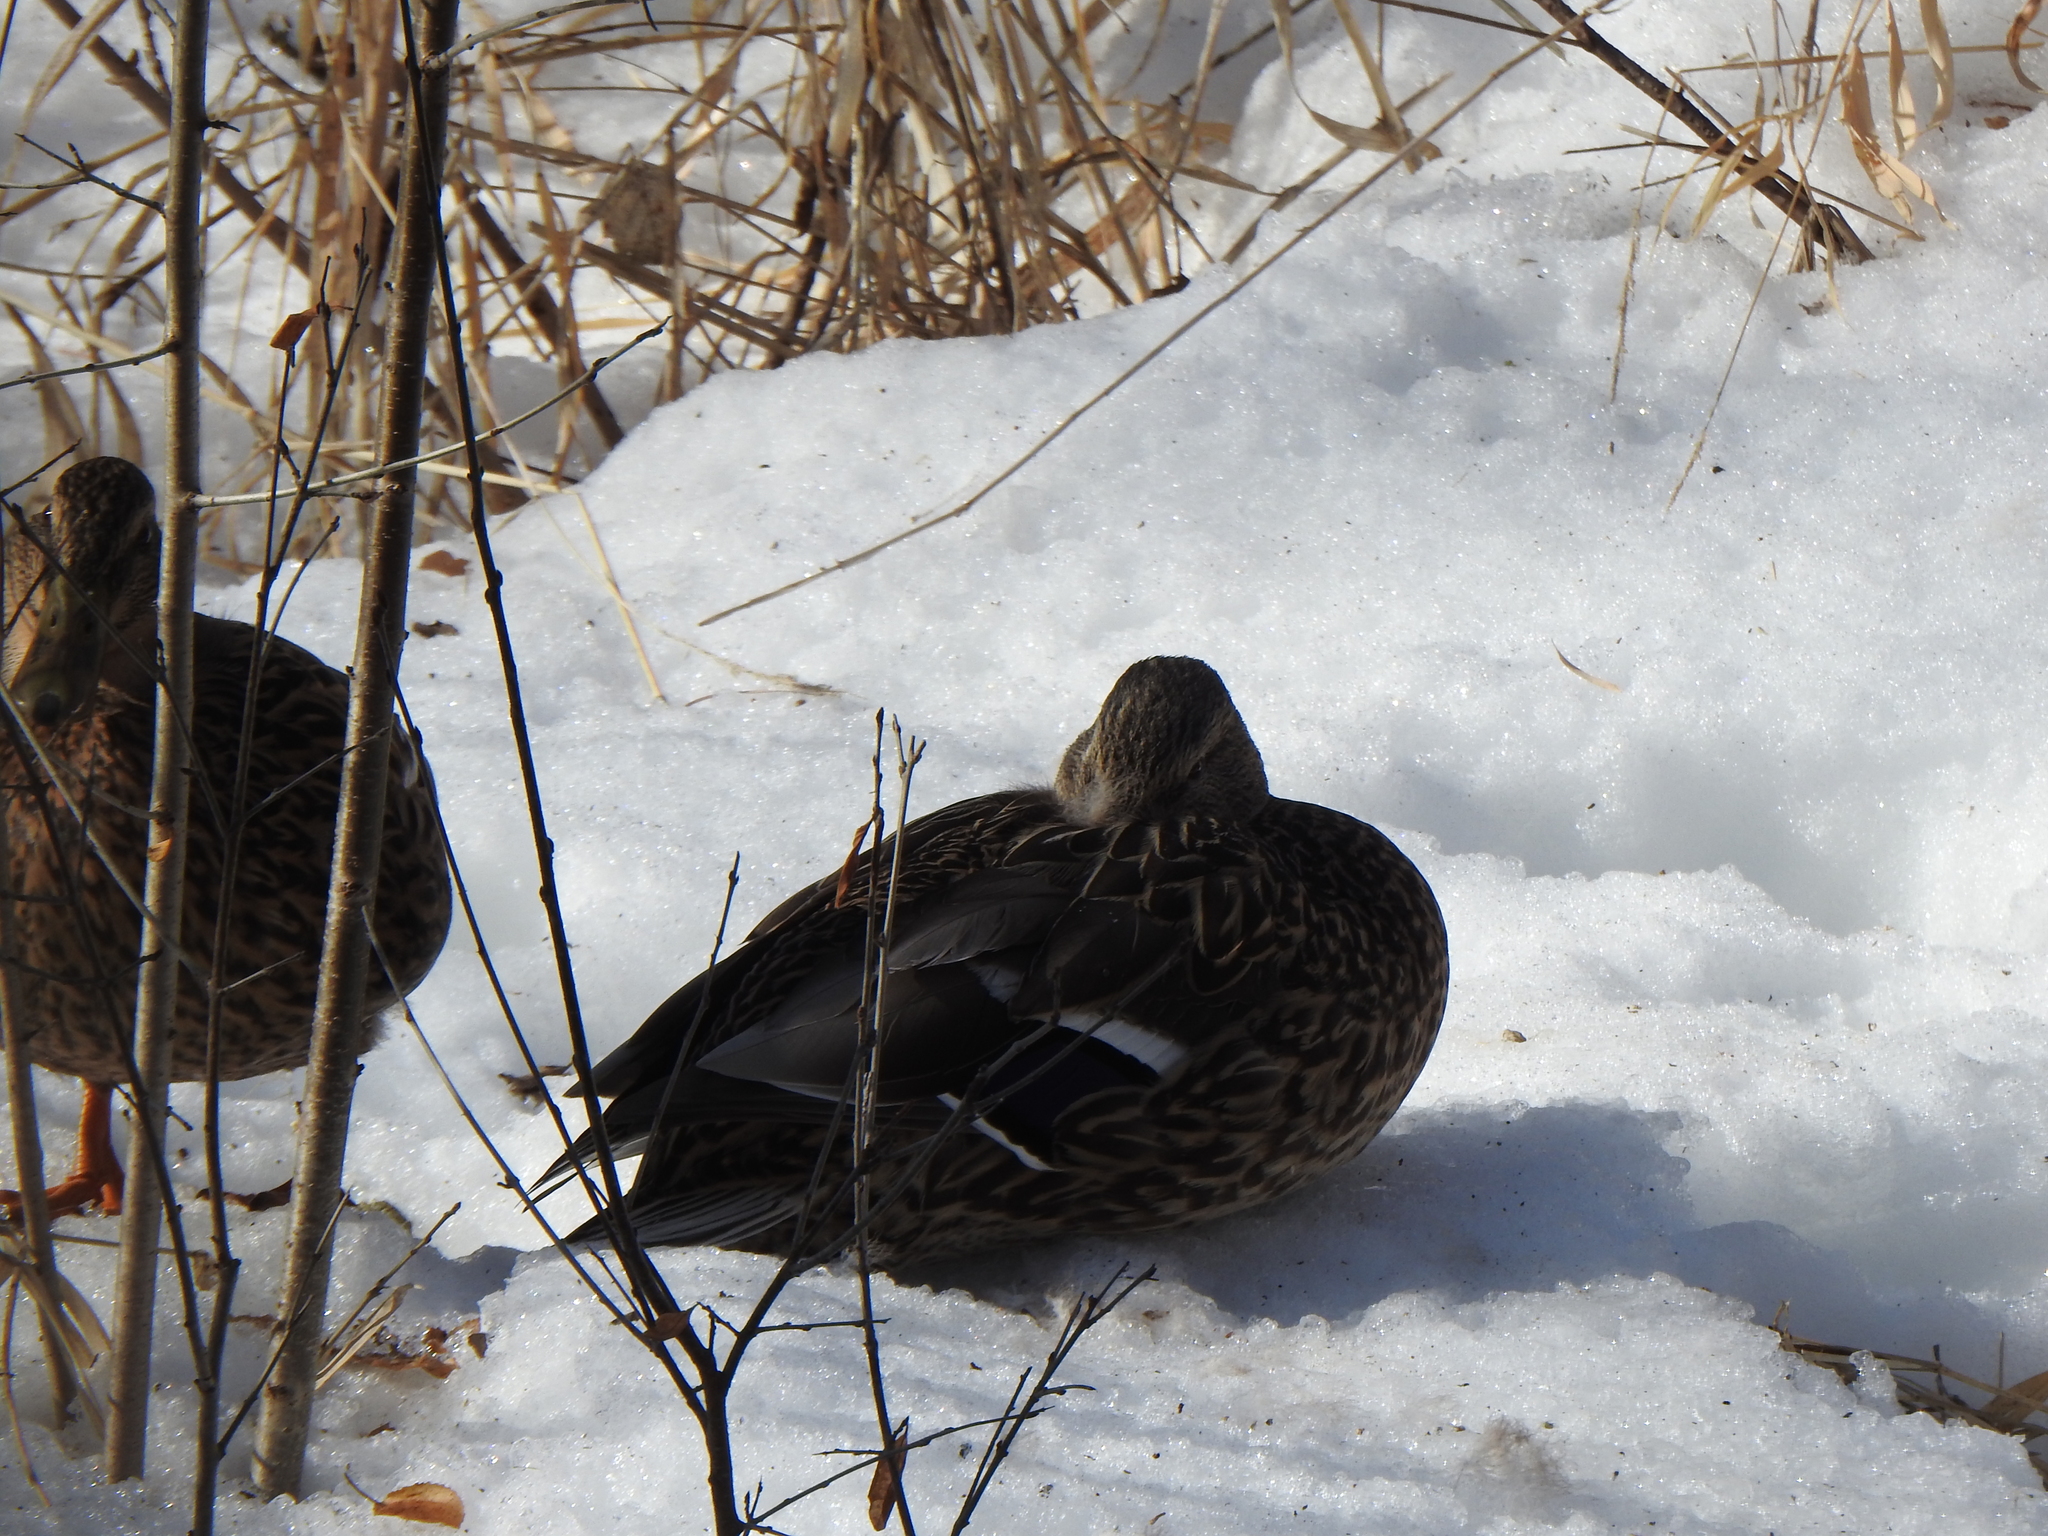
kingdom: Animalia
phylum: Chordata
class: Aves
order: Anseriformes
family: Anatidae
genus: Anas
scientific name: Anas platyrhynchos
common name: Mallard
